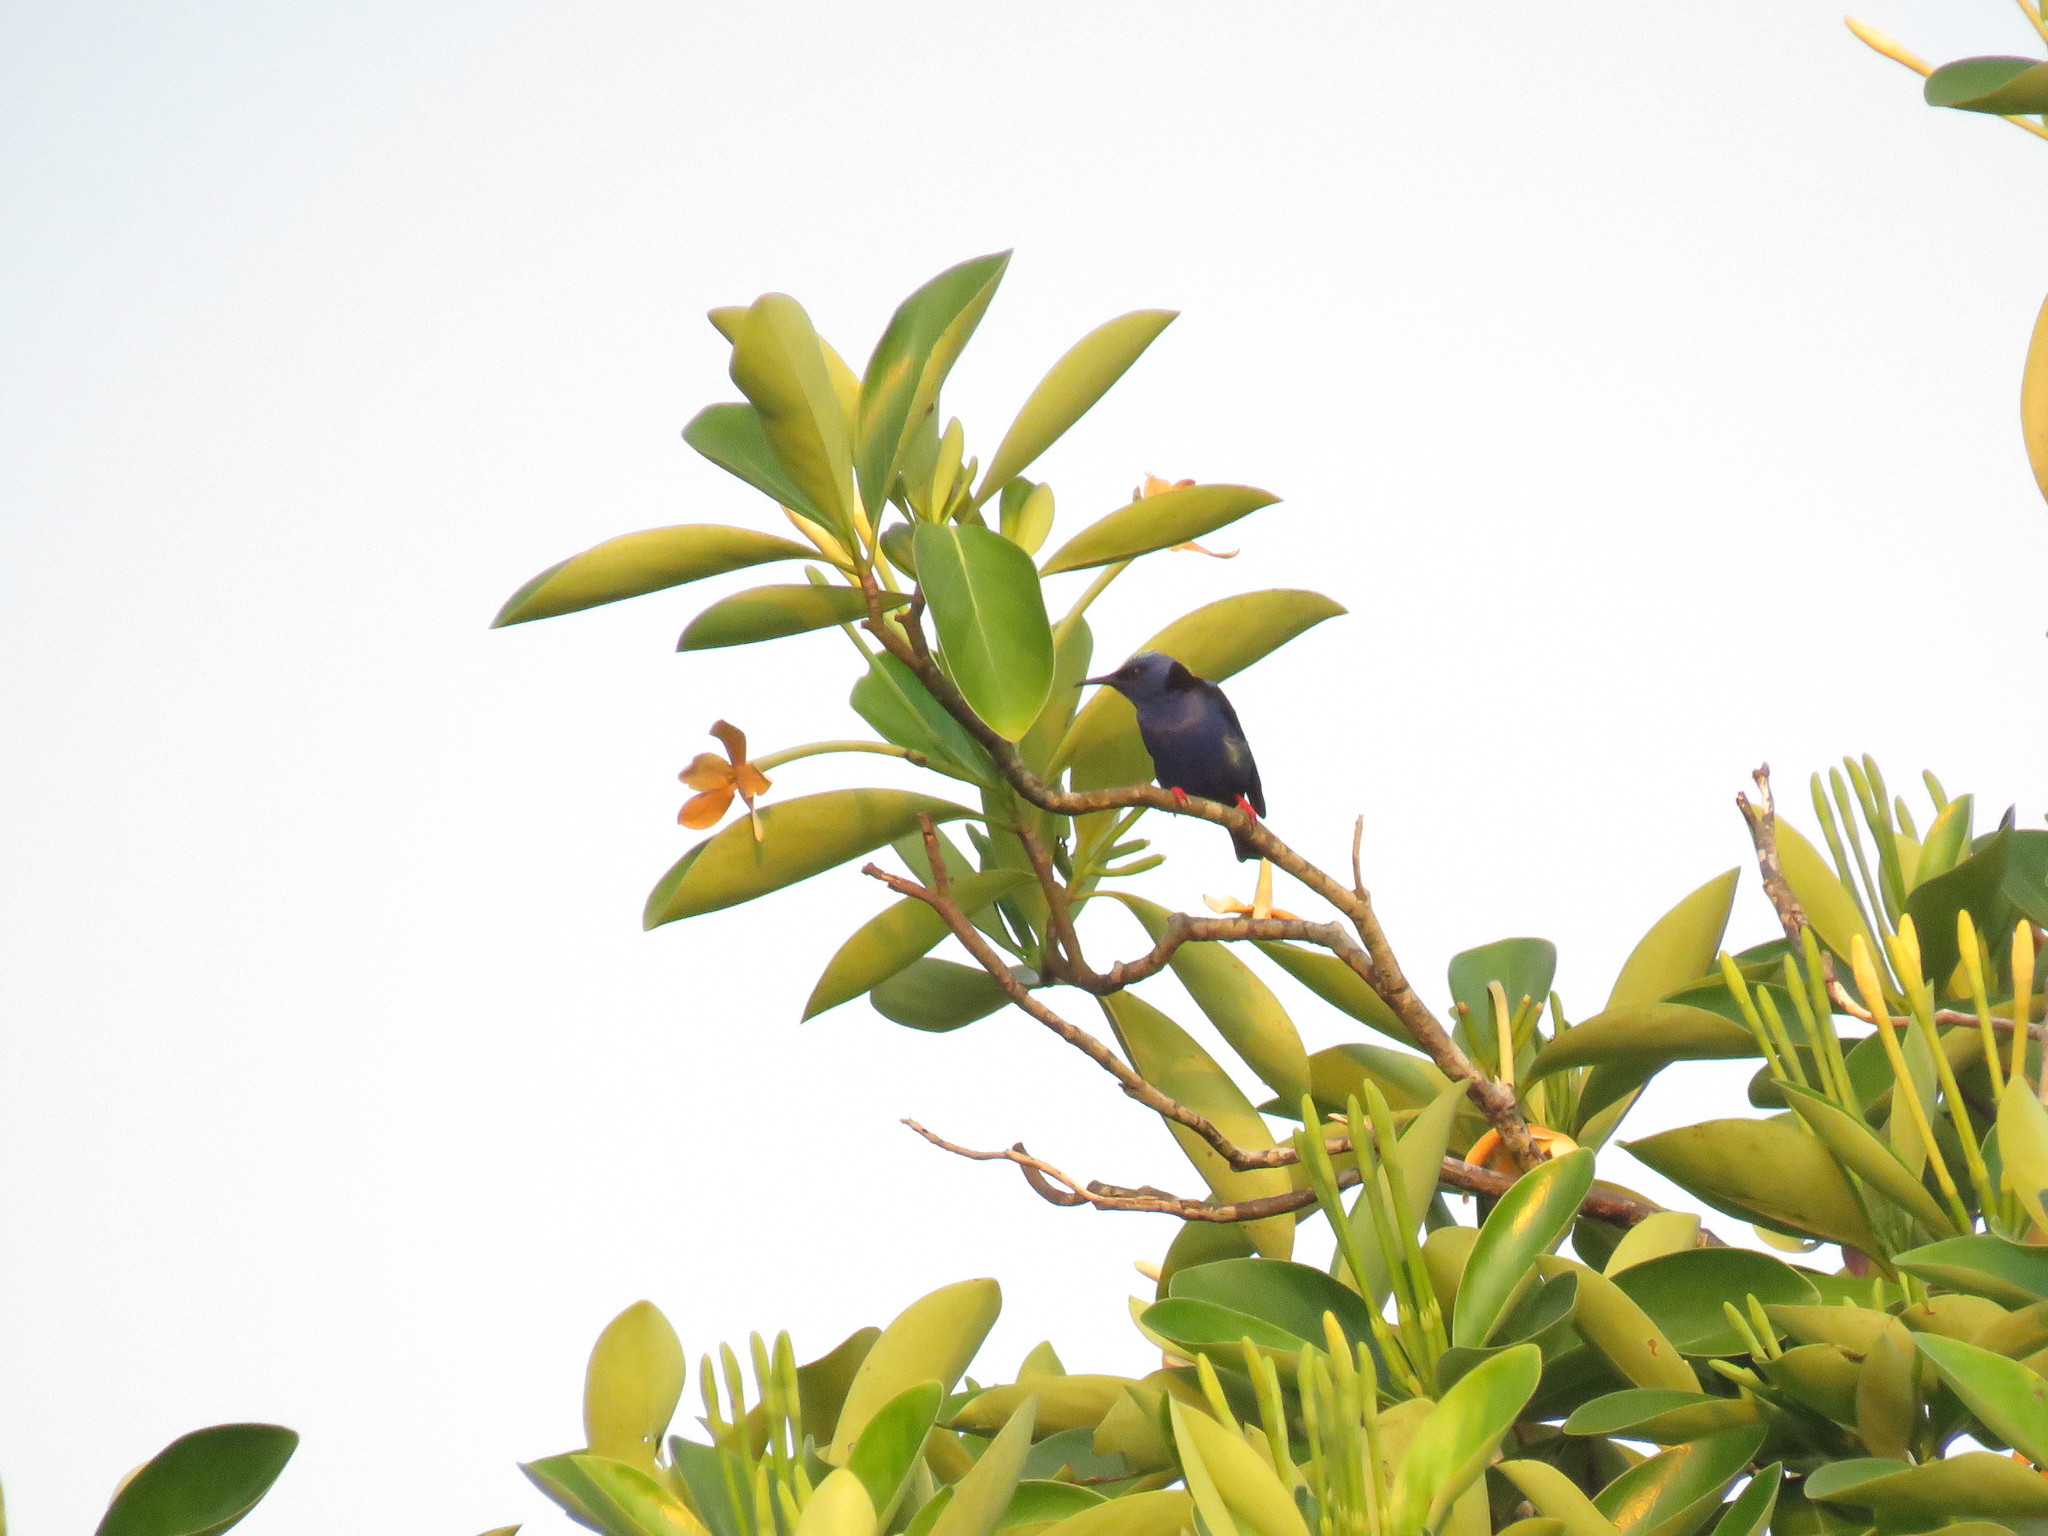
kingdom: Animalia
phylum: Chordata
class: Aves
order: Passeriformes
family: Thraupidae
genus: Cyanerpes
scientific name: Cyanerpes cyaneus
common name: Red-legged honeycreeper
